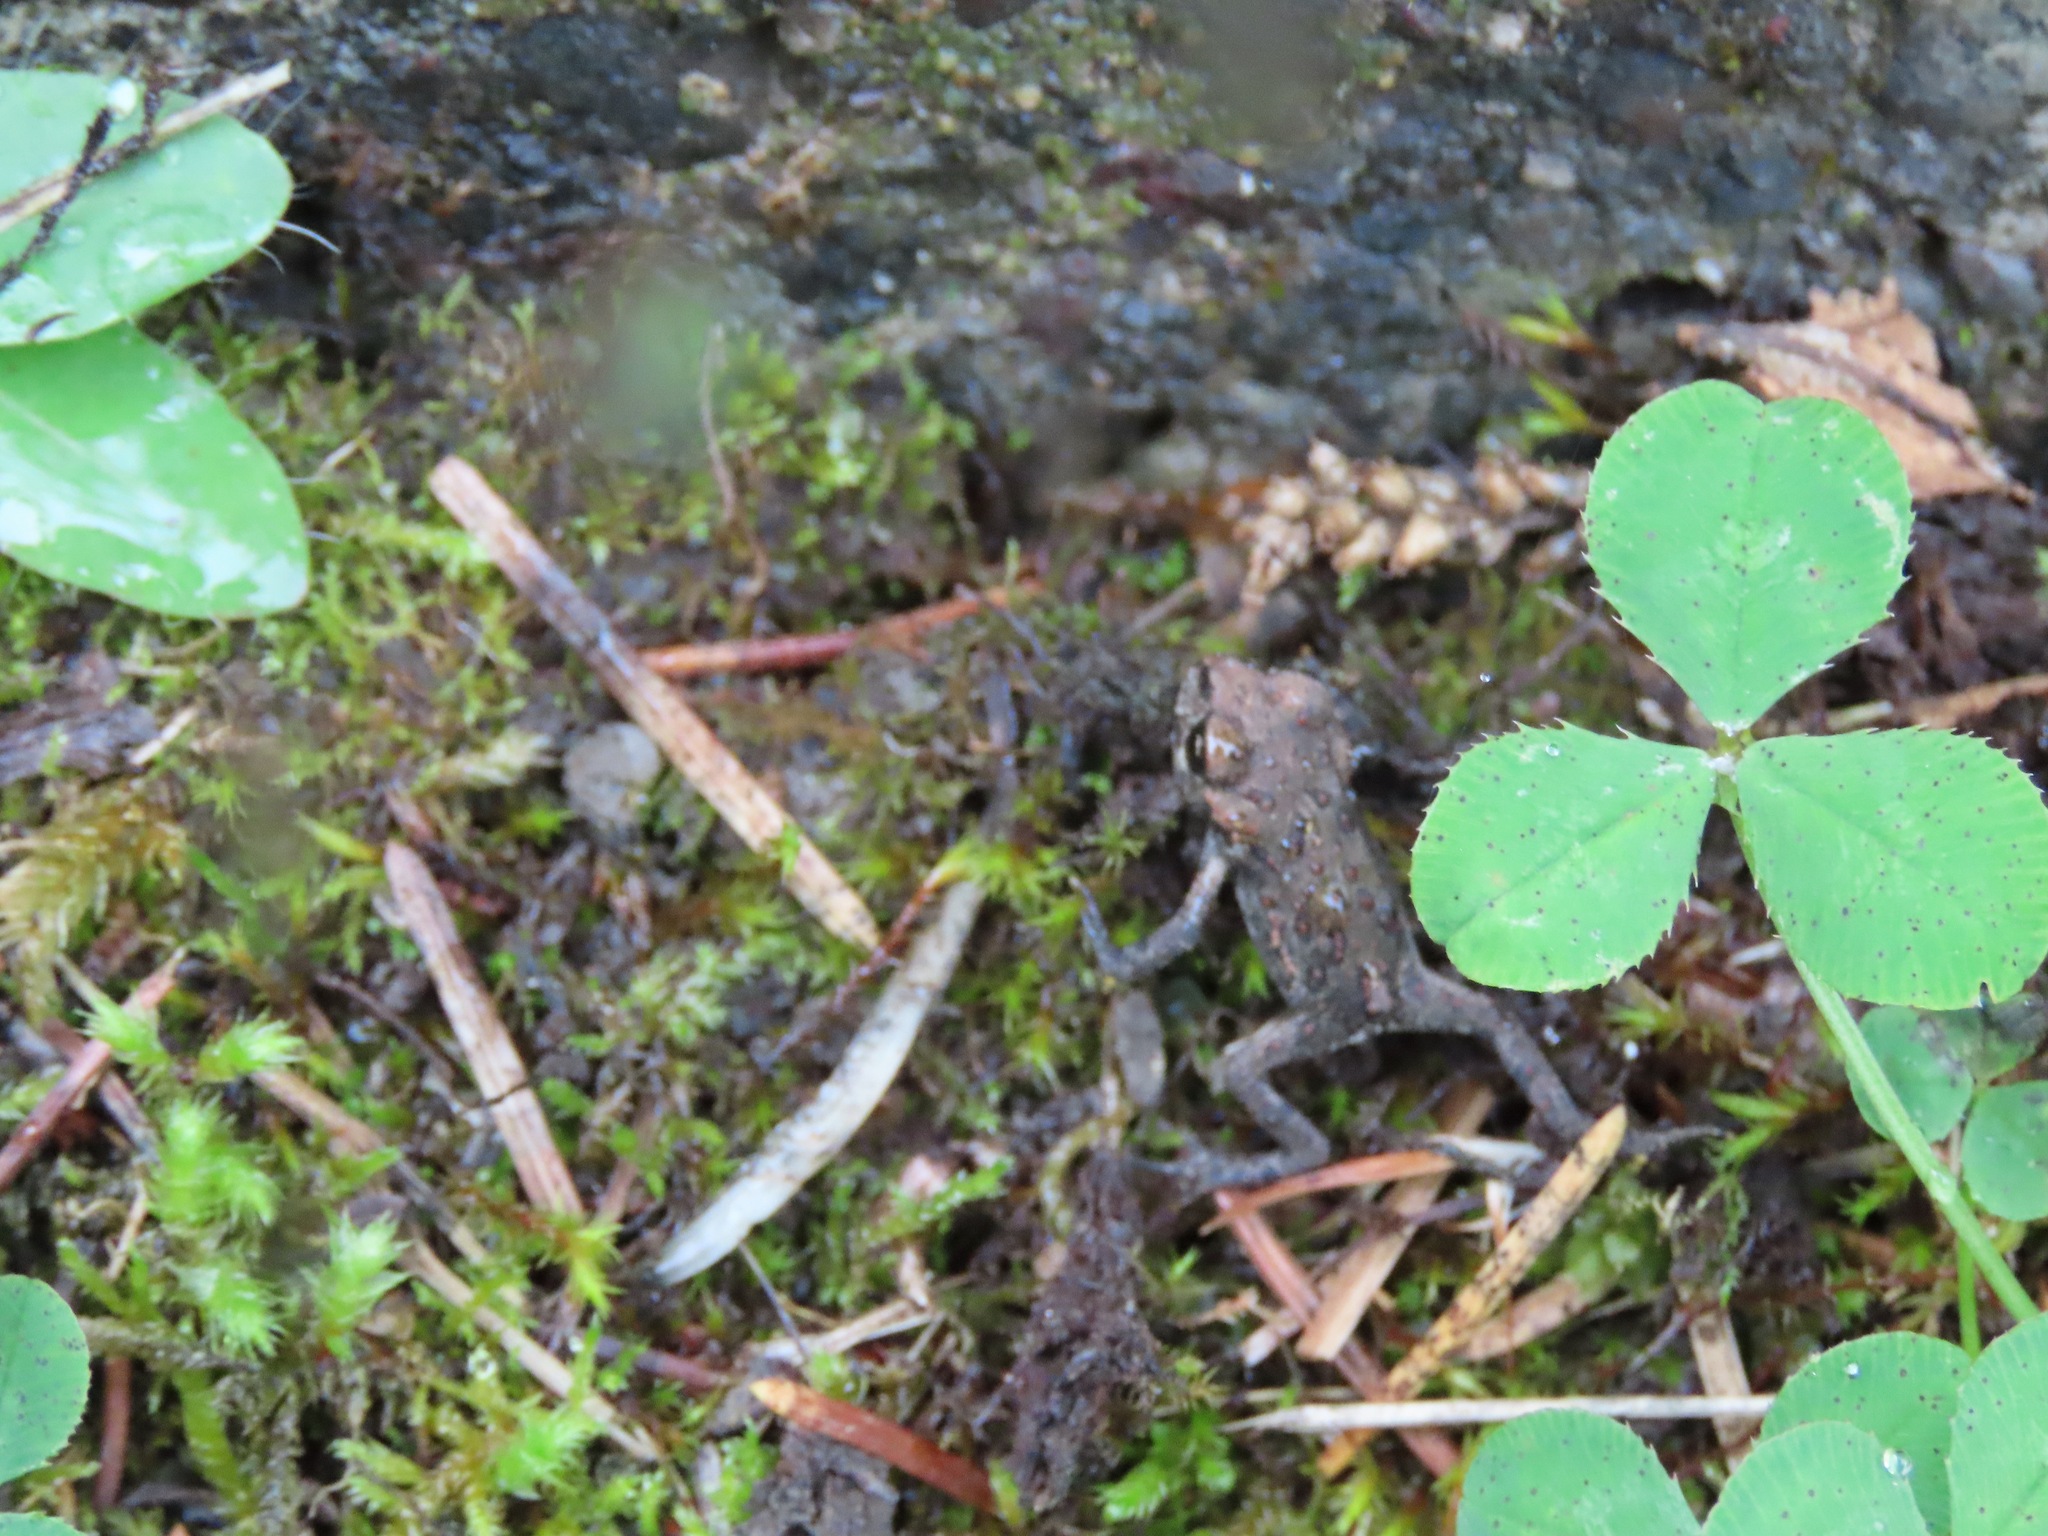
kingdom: Animalia
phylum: Chordata
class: Amphibia
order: Anura
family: Bufonidae
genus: Anaxyrus
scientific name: Anaxyrus boreas
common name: Western toad
